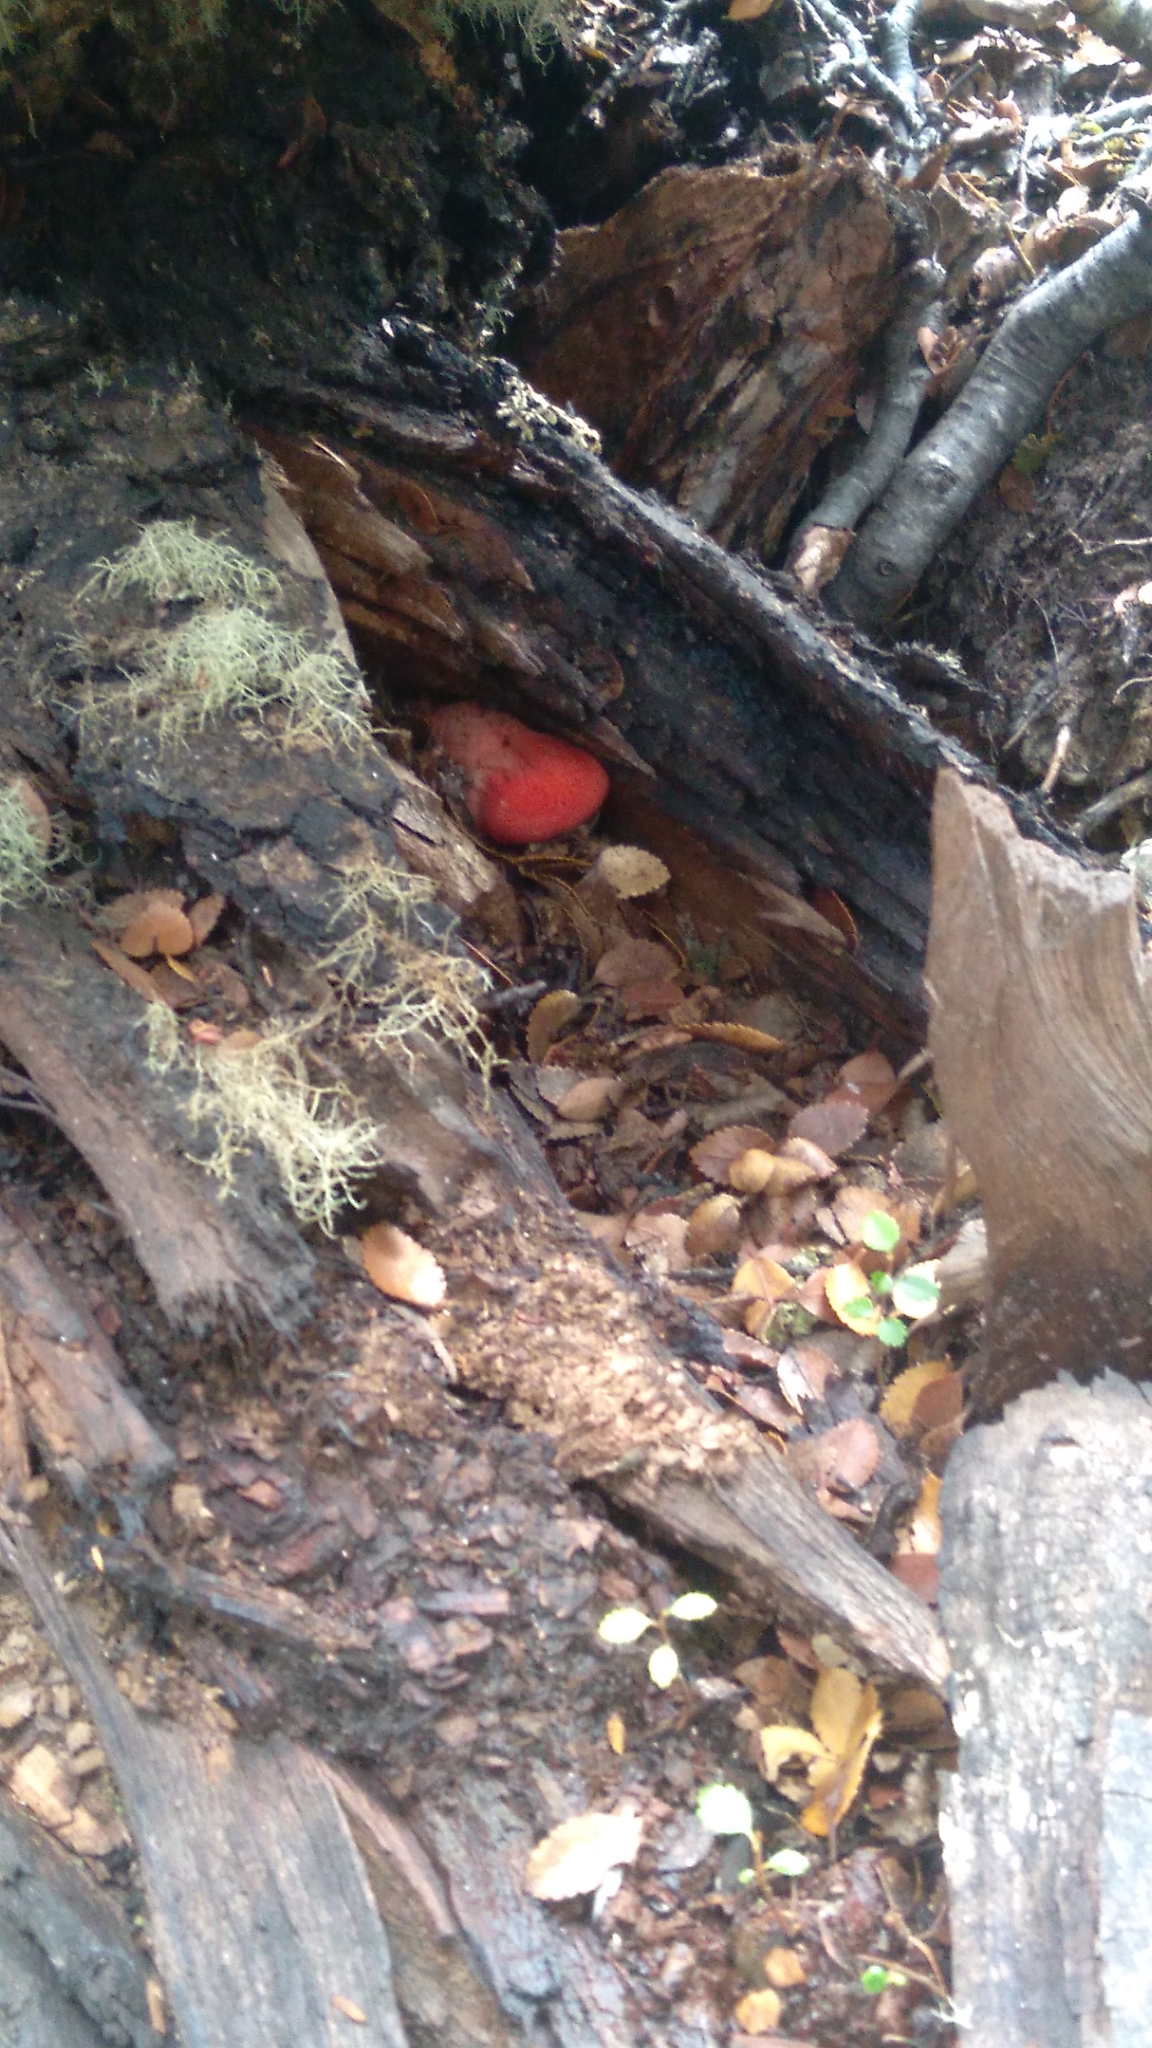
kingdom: Fungi
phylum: Basidiomycota
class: Agaricomycetes
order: Agaricales
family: Fistulinaceae
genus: Fistulina
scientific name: Fistulina antarctica
